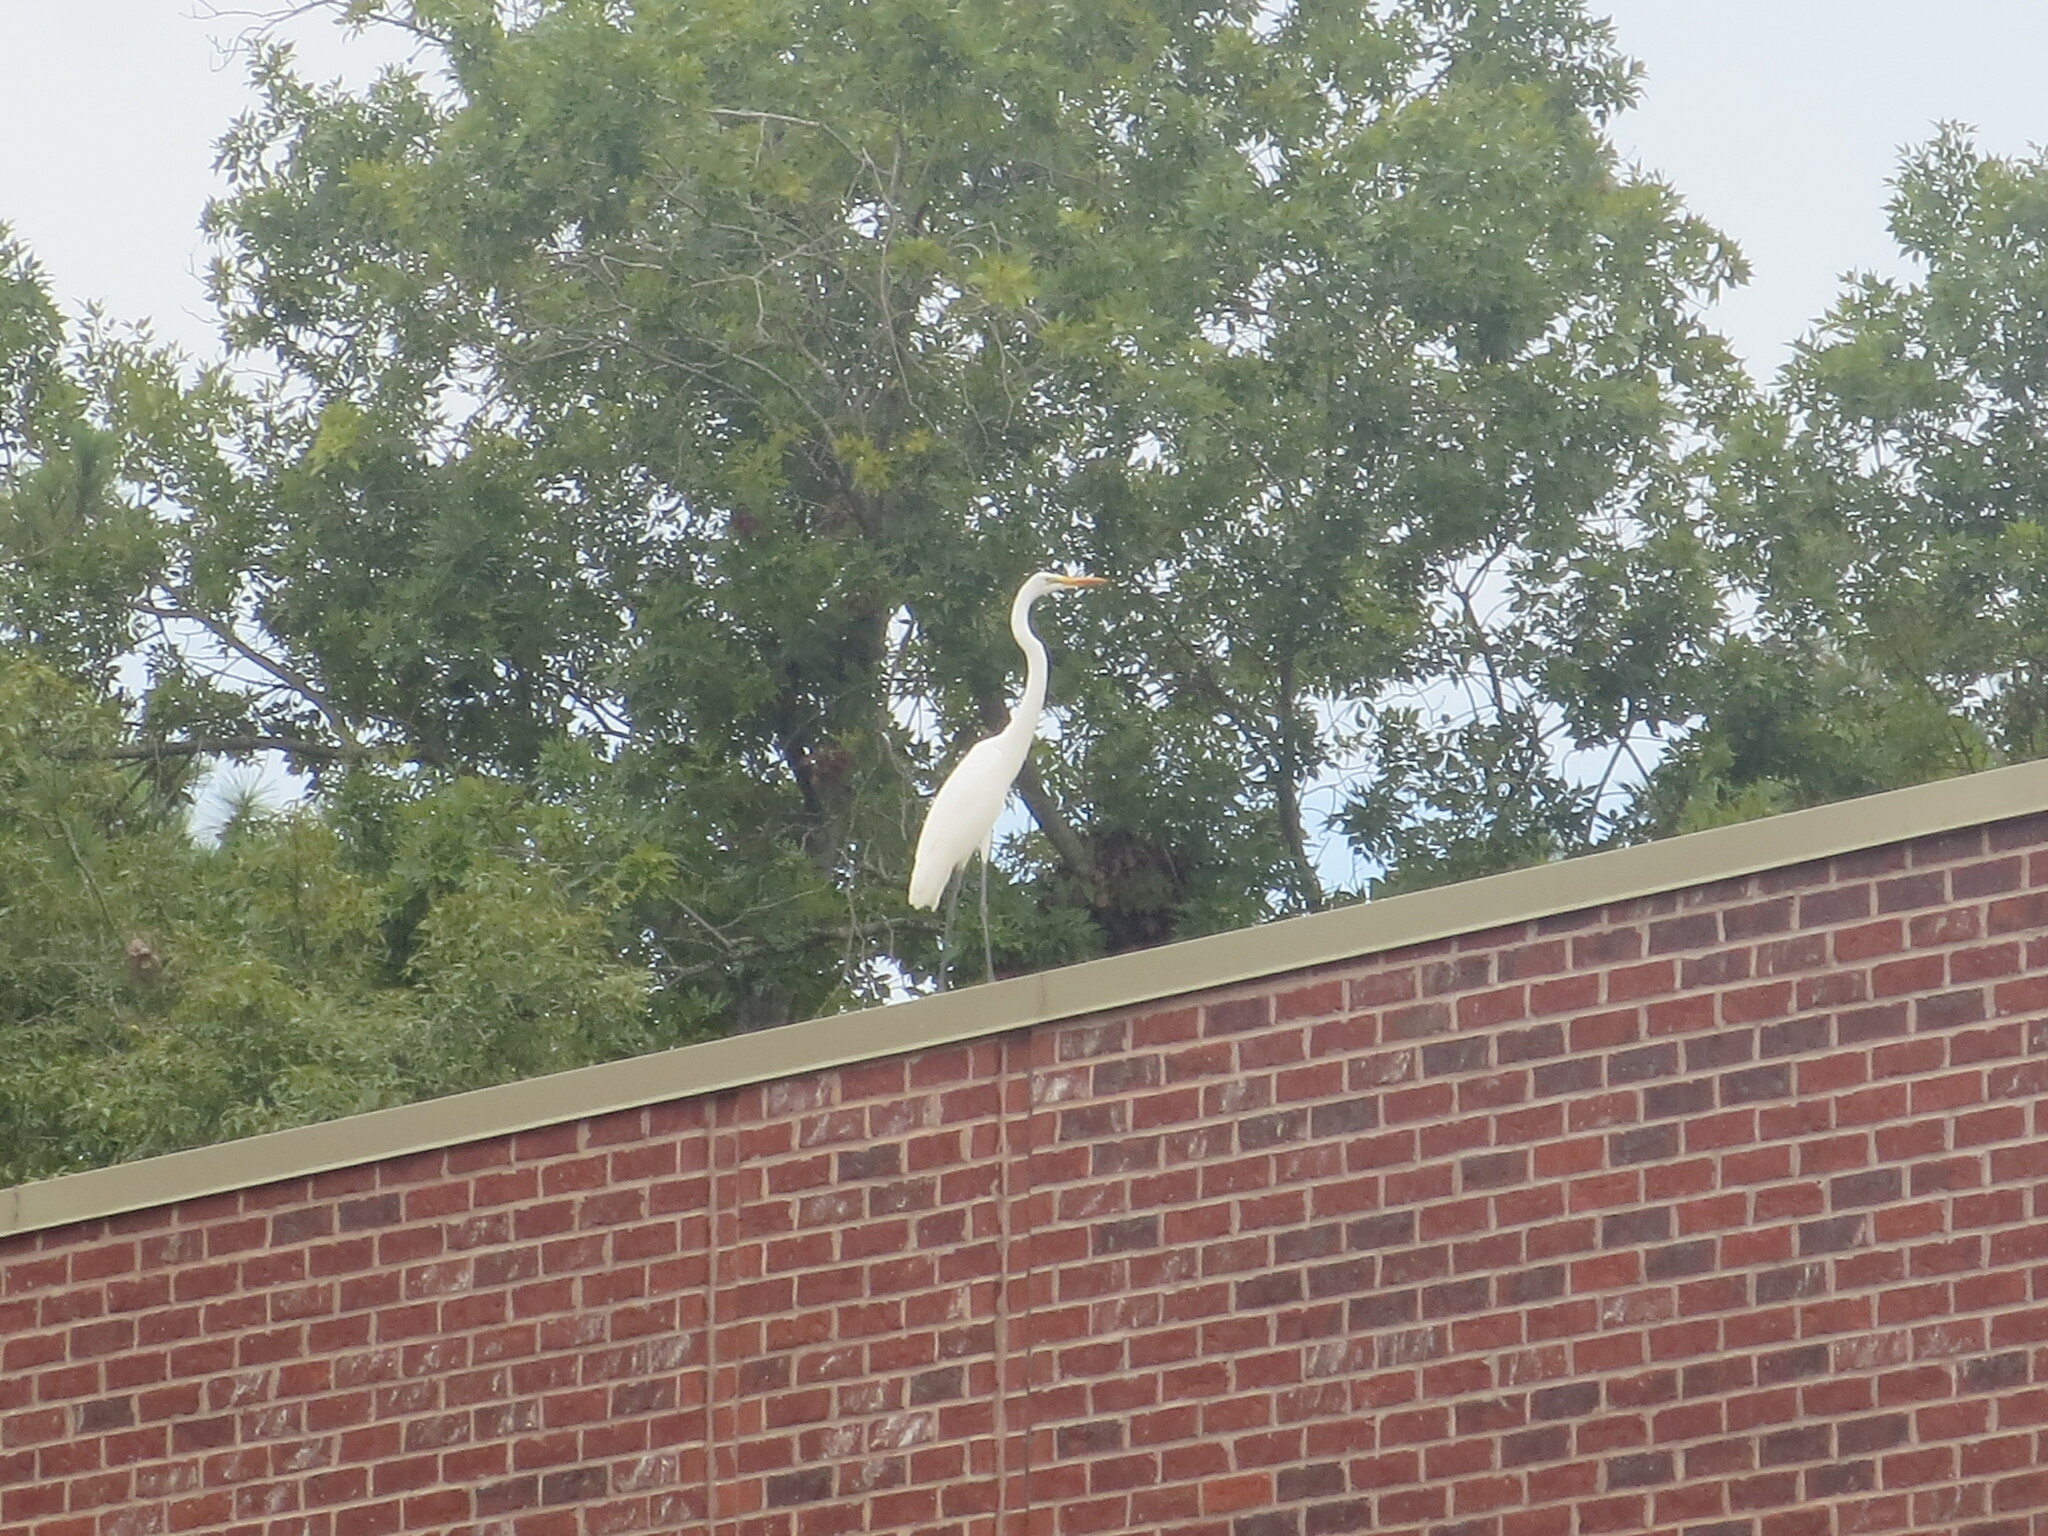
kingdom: Animalia
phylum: Chordata
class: Aves
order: Pelecaniformes
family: Ardeidae
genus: Ardea
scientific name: Ardea alba
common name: Great egret
